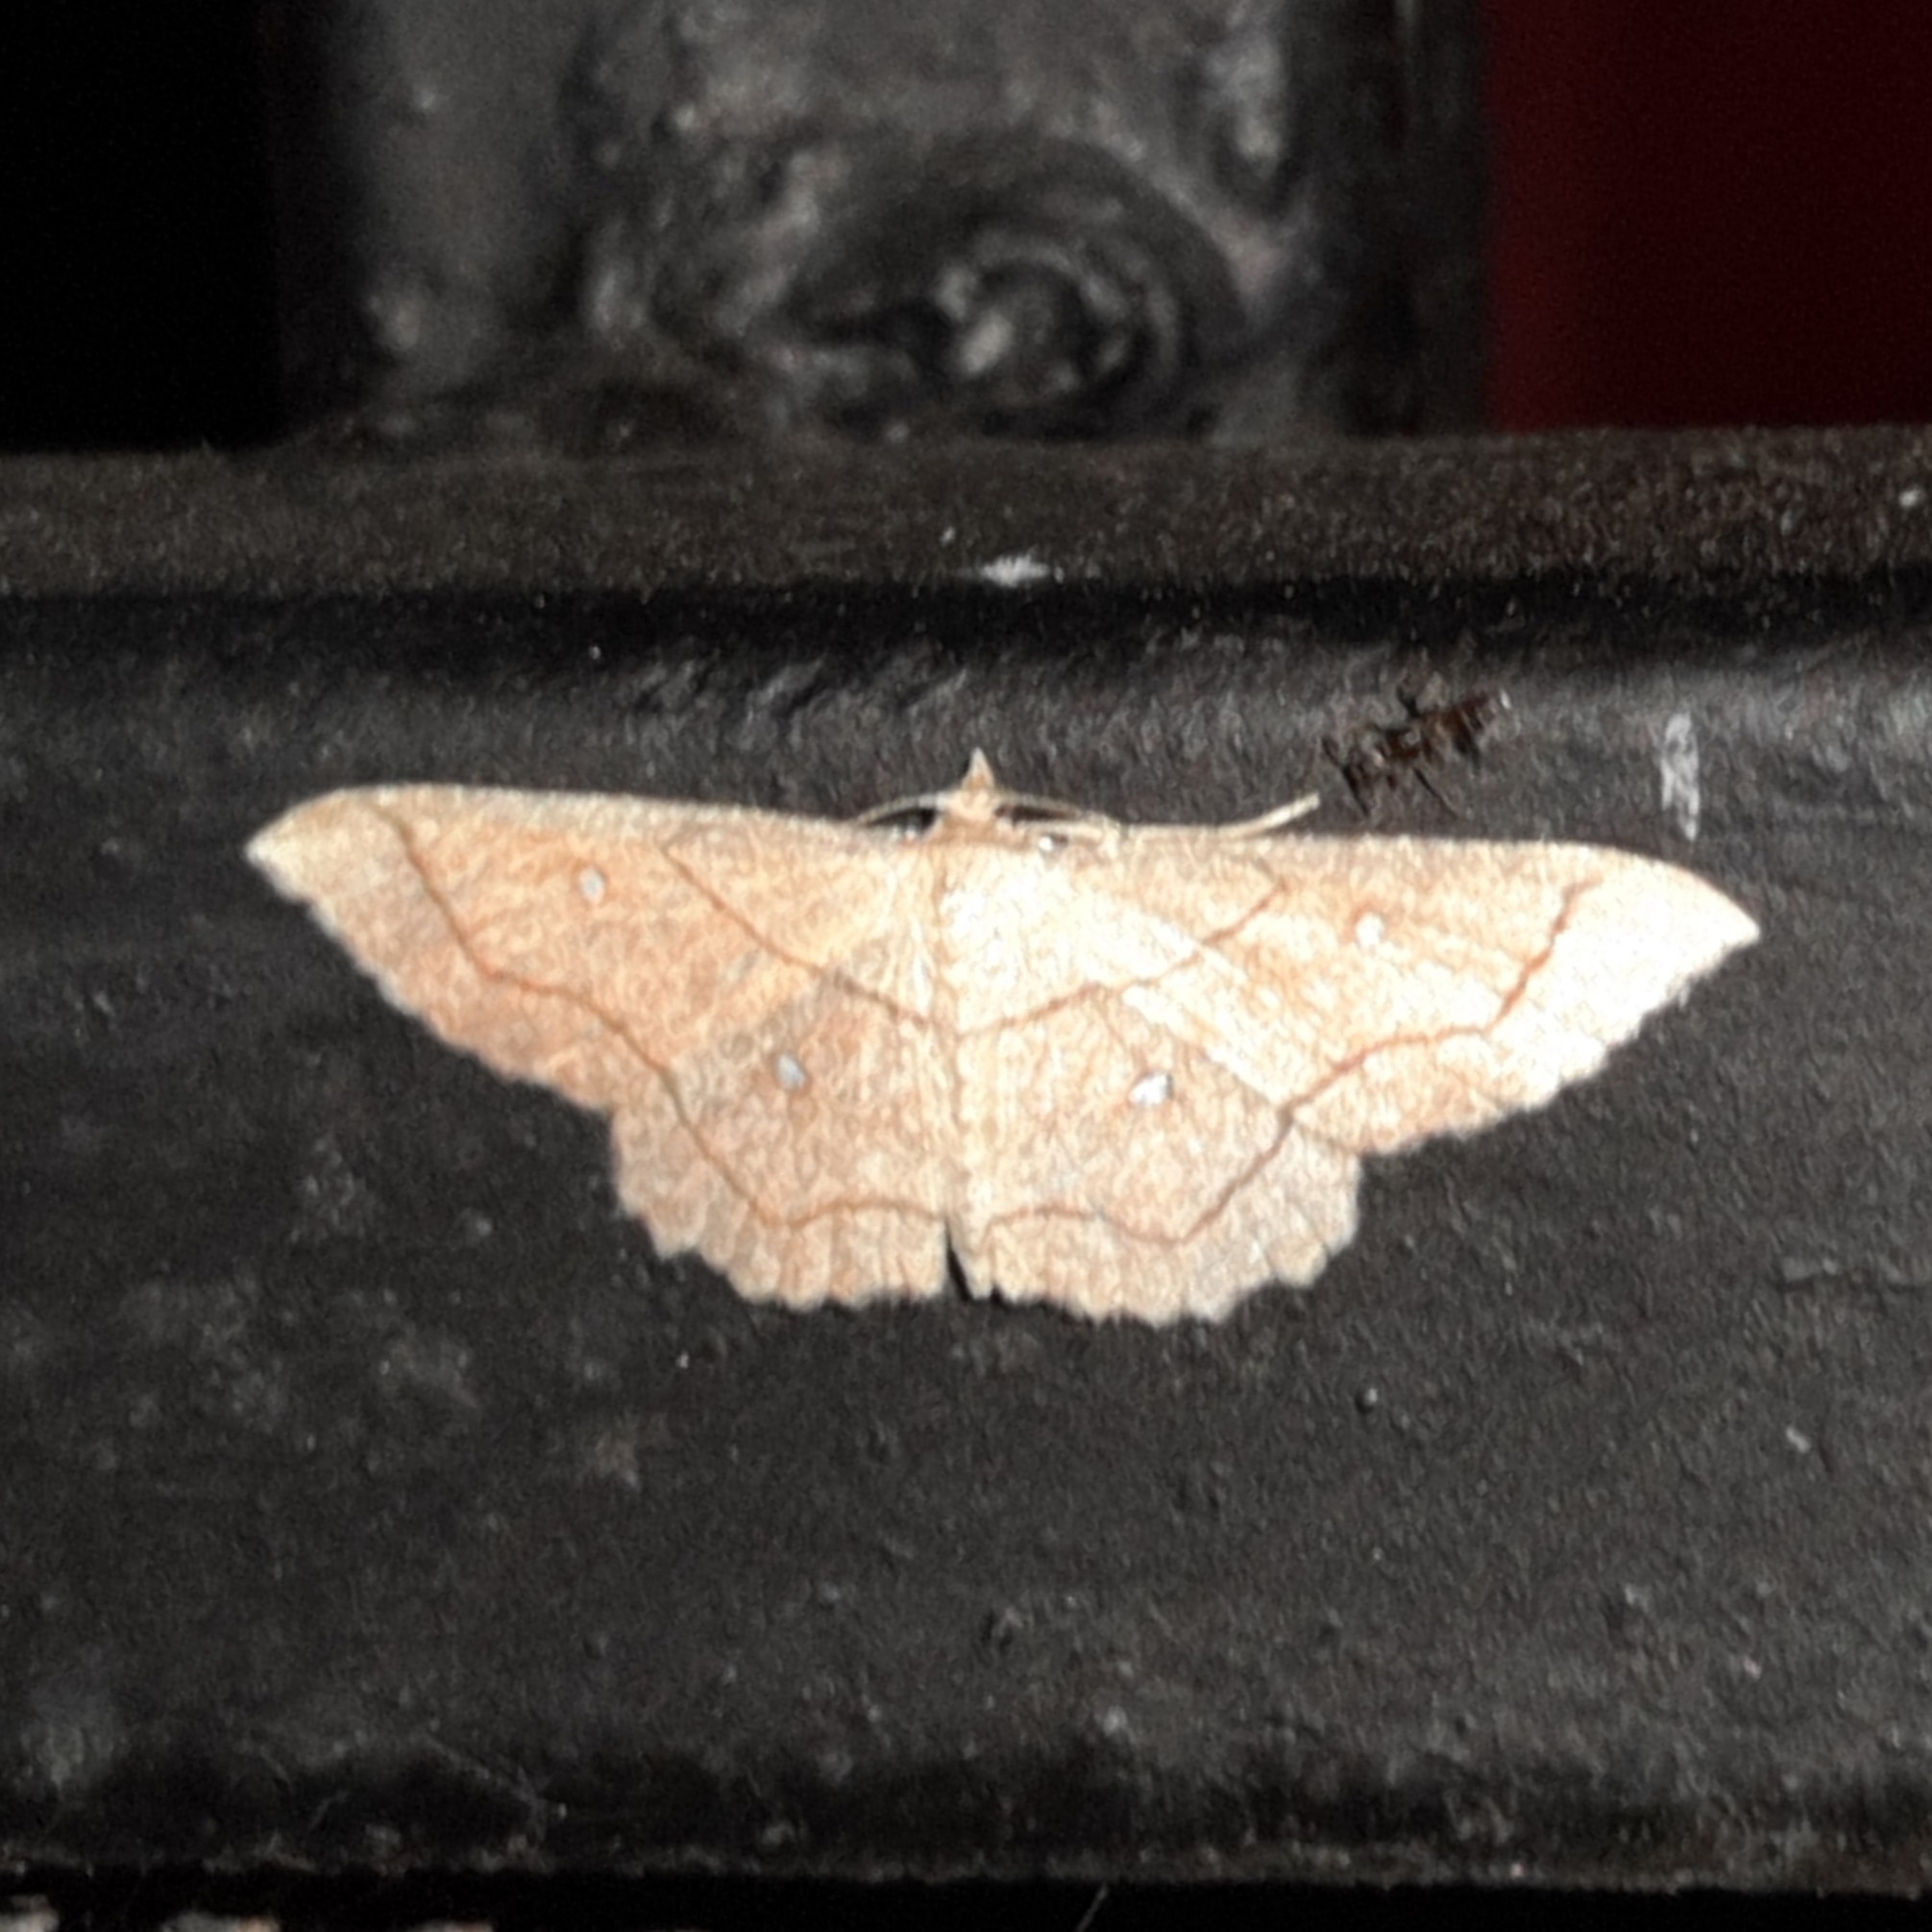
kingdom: Animalia
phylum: Arthropoda
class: Insecta
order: Lepidoptera
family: Geometridae
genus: Cyclophora
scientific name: Cyclophora coecaria
